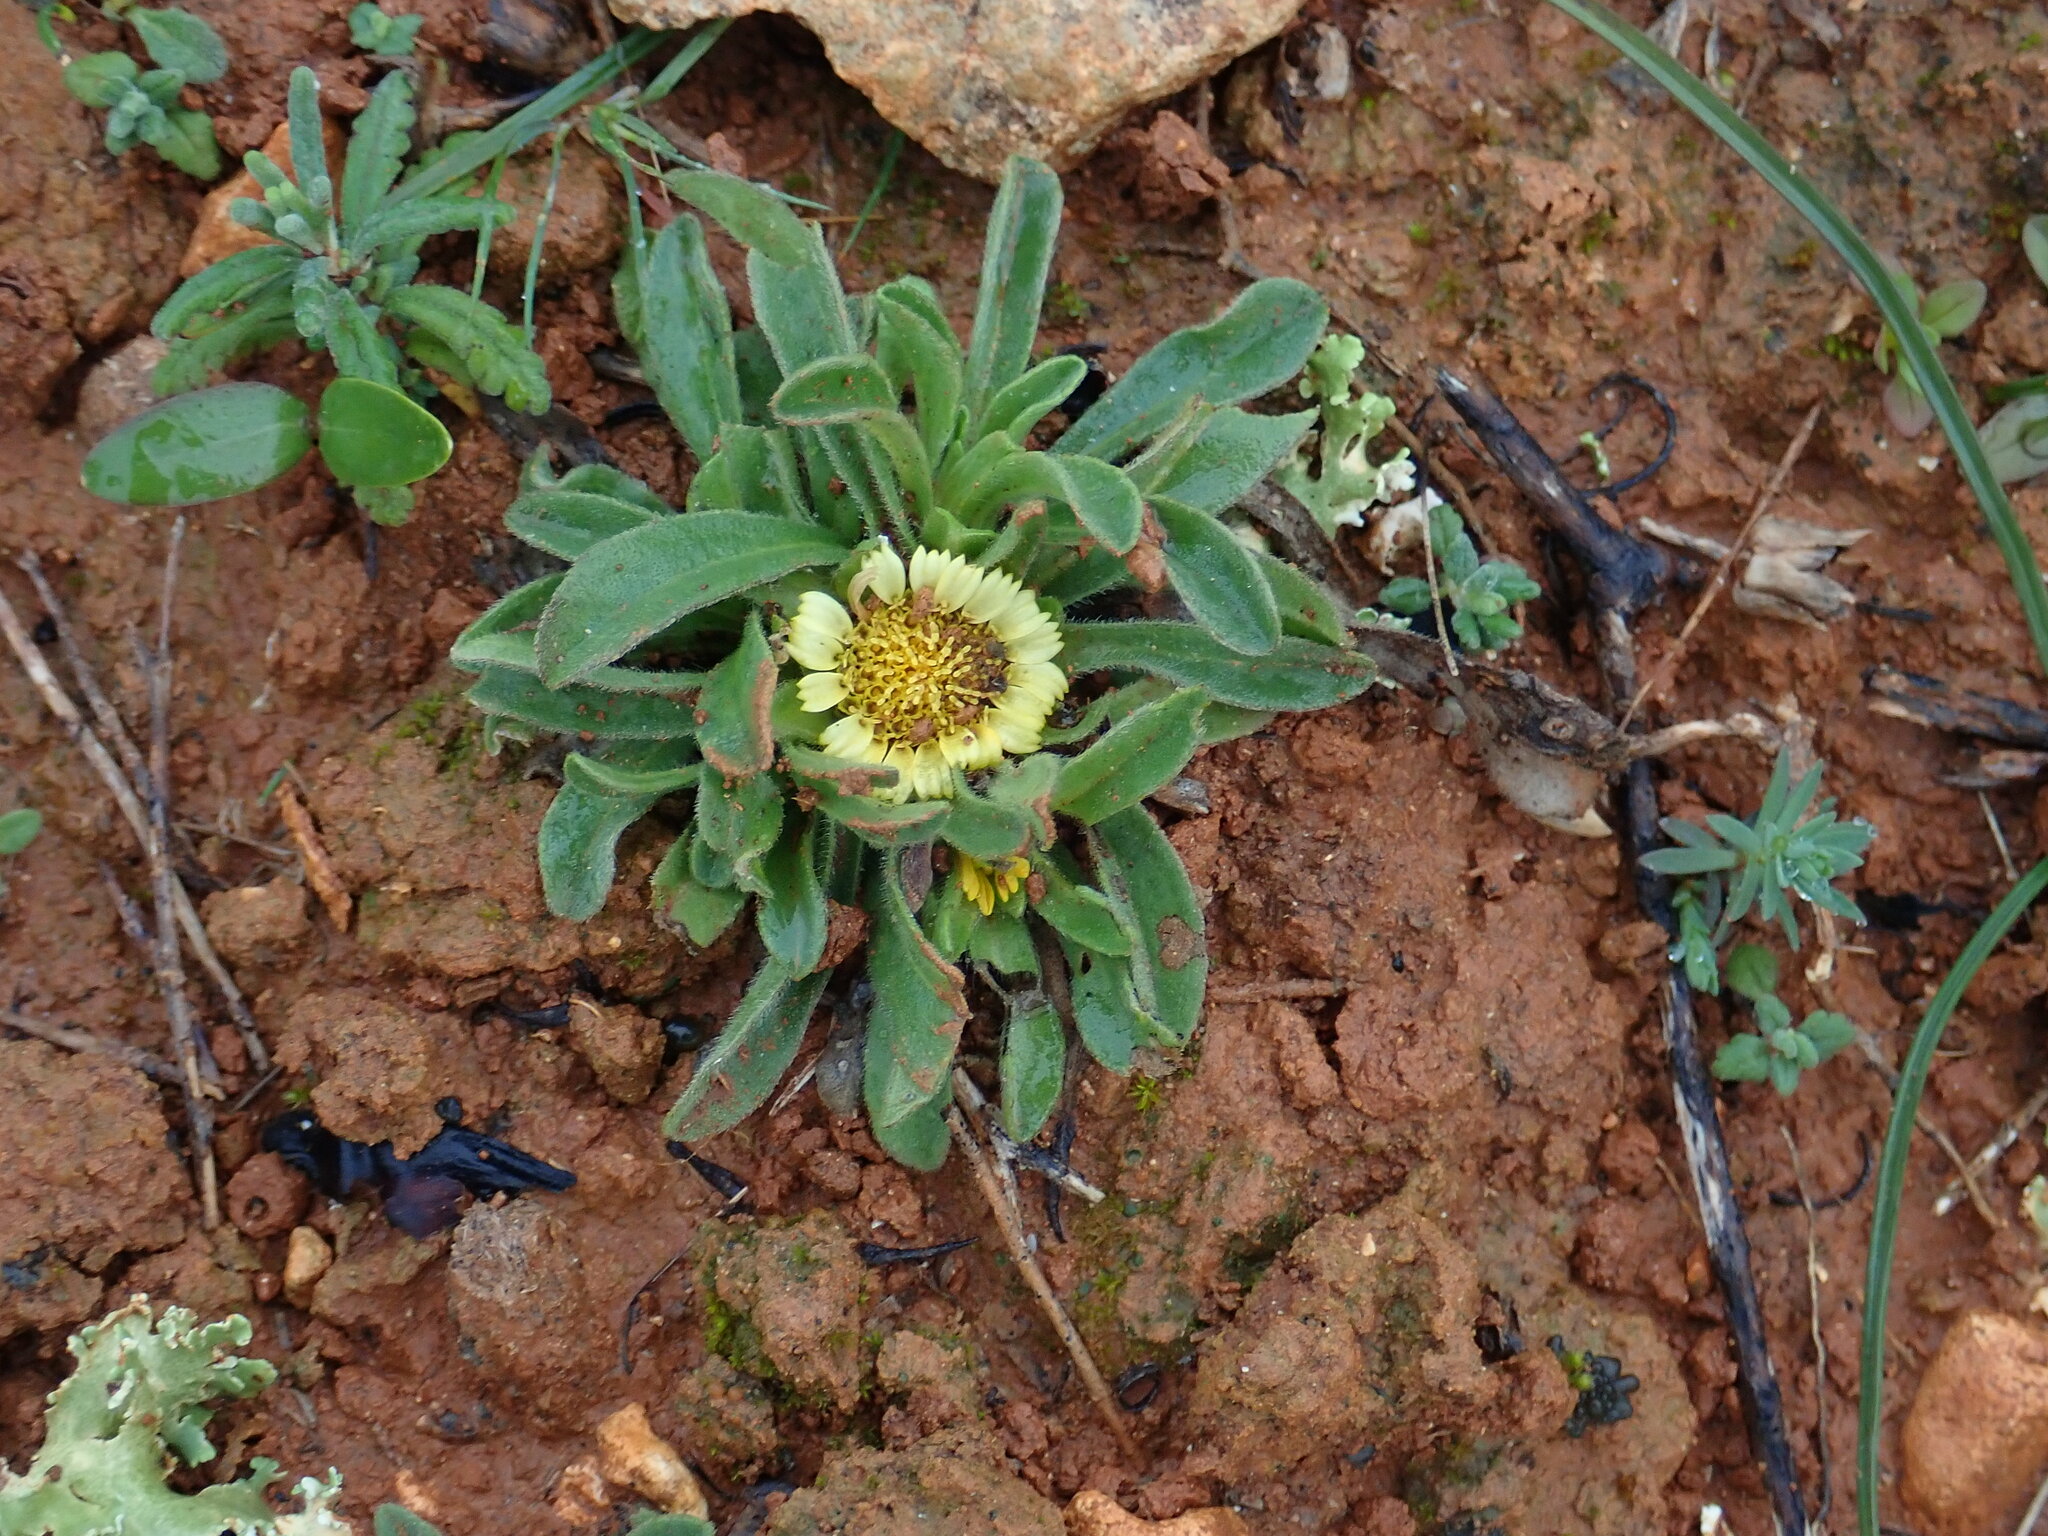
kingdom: Plantae
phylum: Tracheophyta
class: Magnoliopsida
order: Asterales
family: Asteraceae
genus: Asteriscus
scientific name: Asteriscus aquaticus
